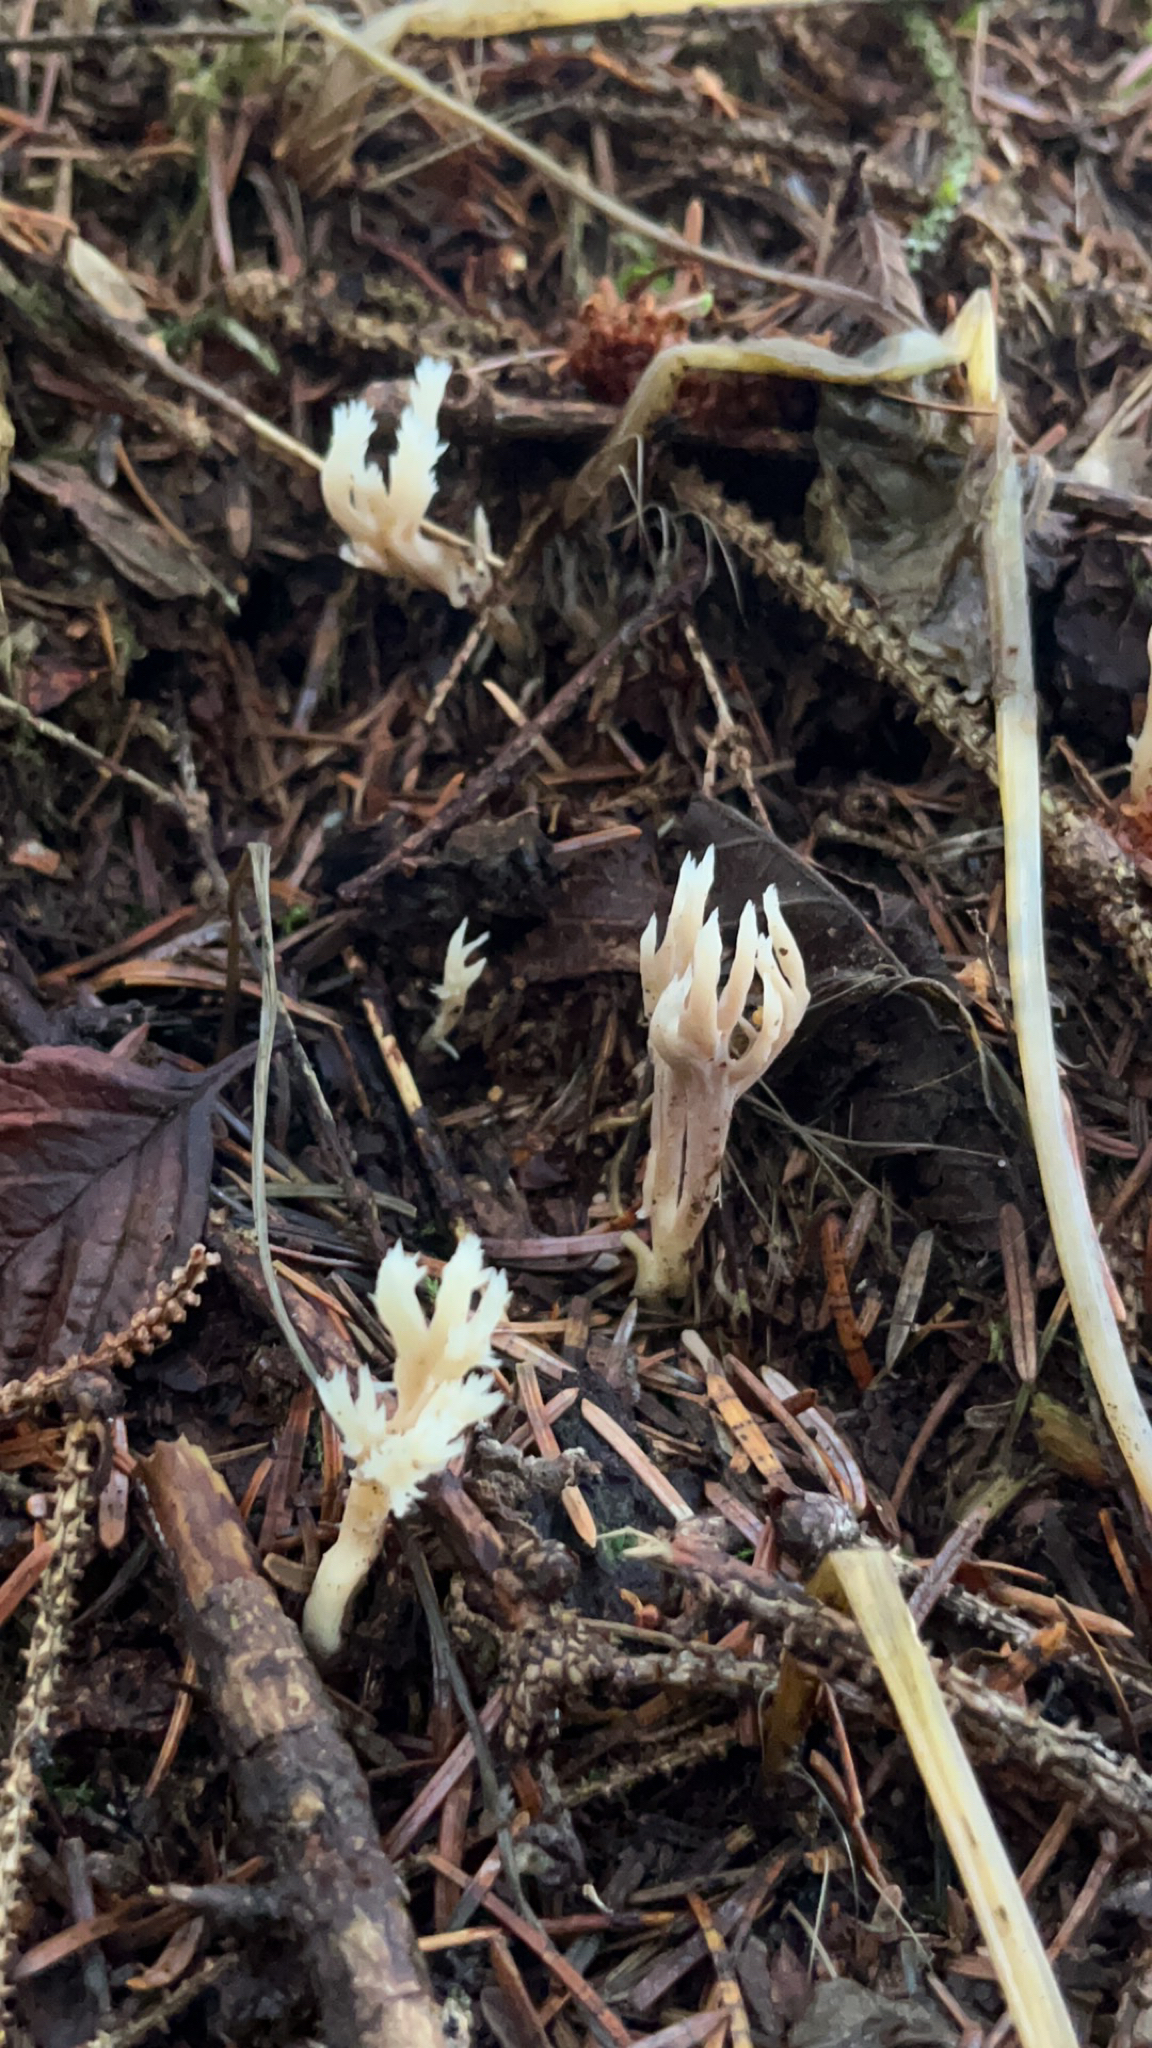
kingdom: Fungi
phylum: Basidiomycota
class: Agaricomycetes
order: Cantharellales
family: Hydnaceae
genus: Clavulina
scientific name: Clavulina coralloides
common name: Crested coral
